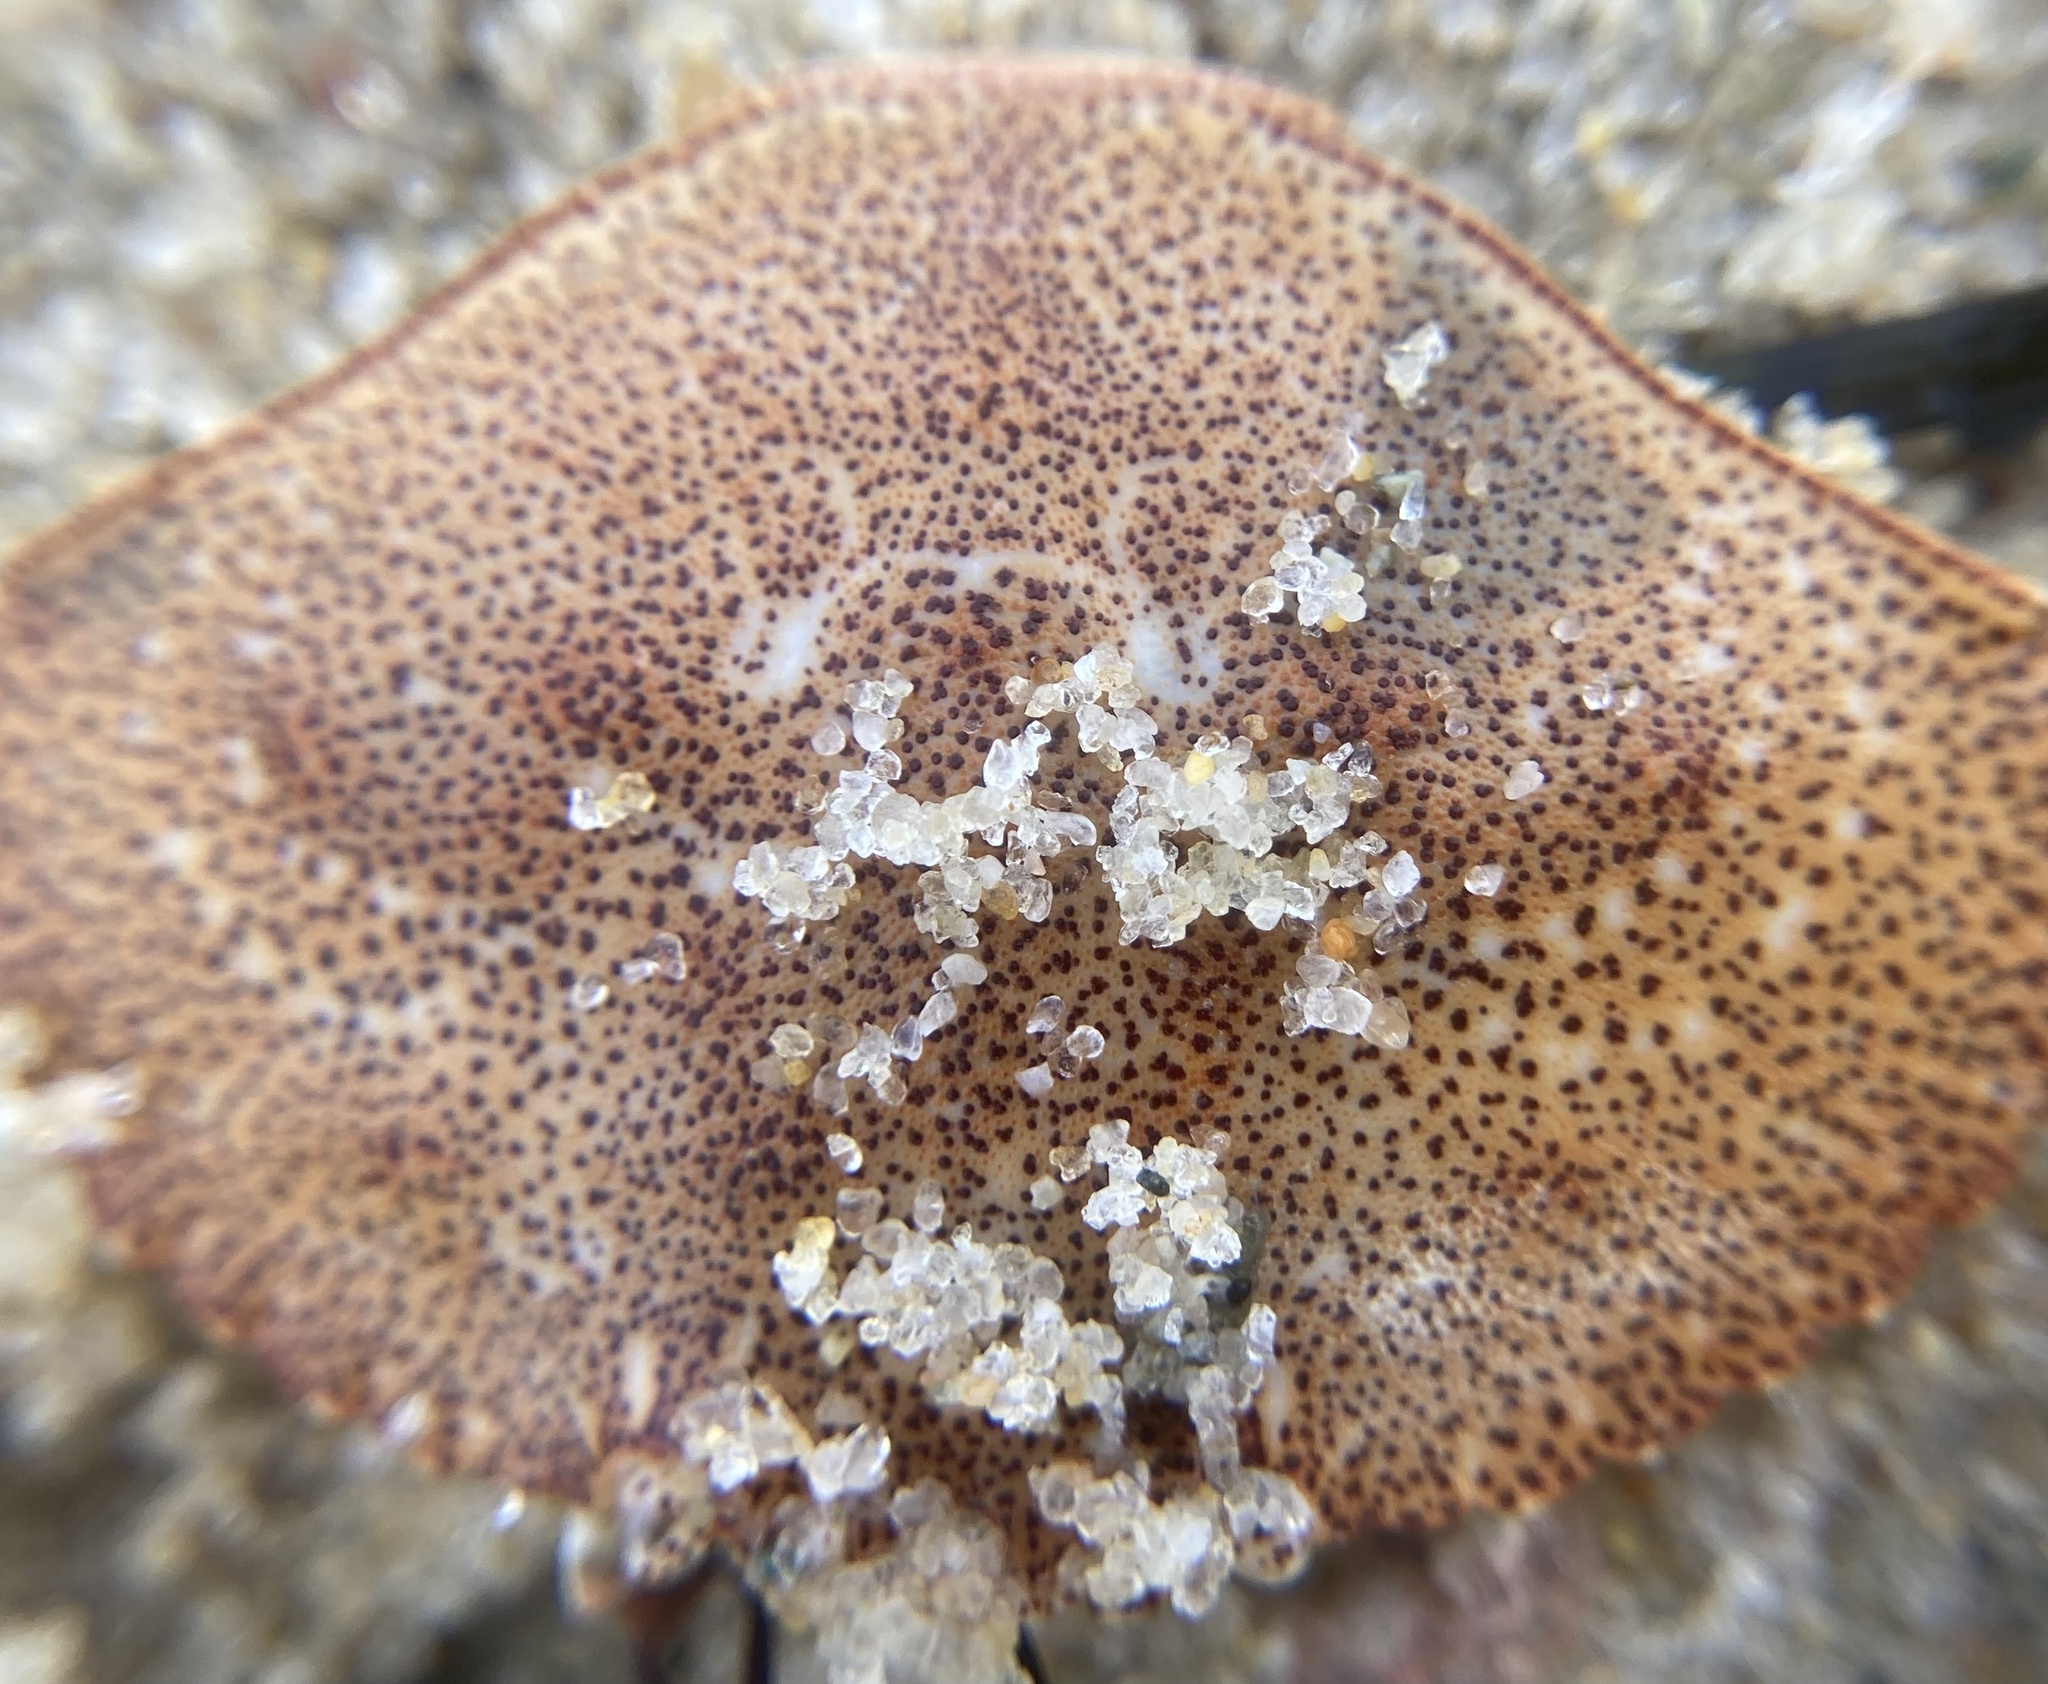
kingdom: Animalia
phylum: Arthropoda
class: Malacostraca
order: Decapoda
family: Cancridae
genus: Cancer
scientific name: Cancer irroratus
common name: Atlantic rock crab
